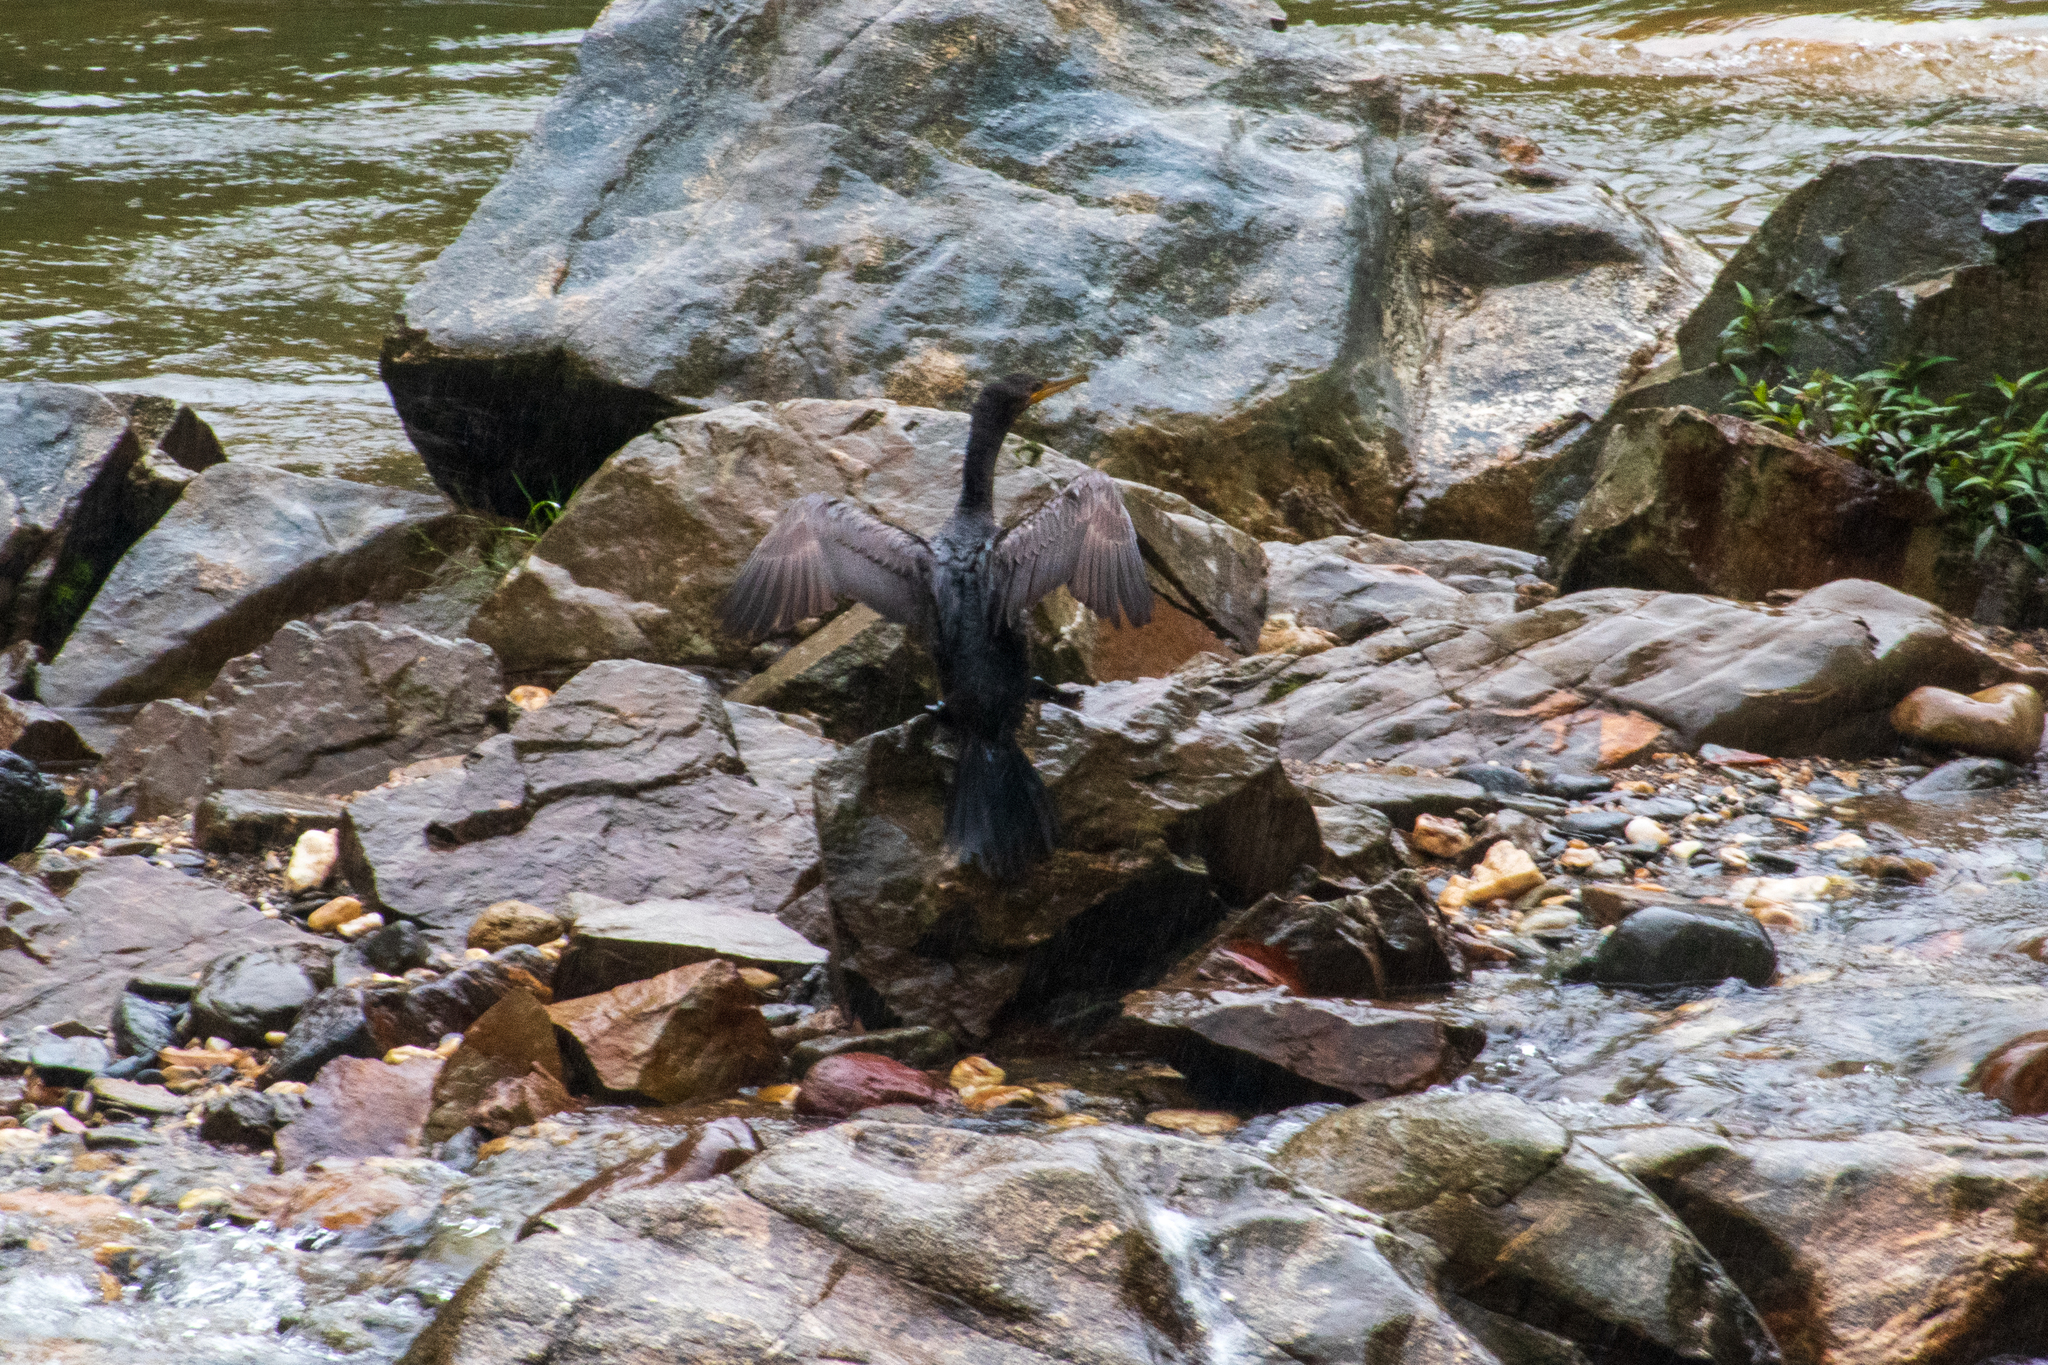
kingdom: Animalia
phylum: Chordata
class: Aves
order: Suliformes
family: Phalacrocoracidae
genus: Phalacrocorax
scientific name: Phalacrocorax brasilianus
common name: Neotropic cormorant
